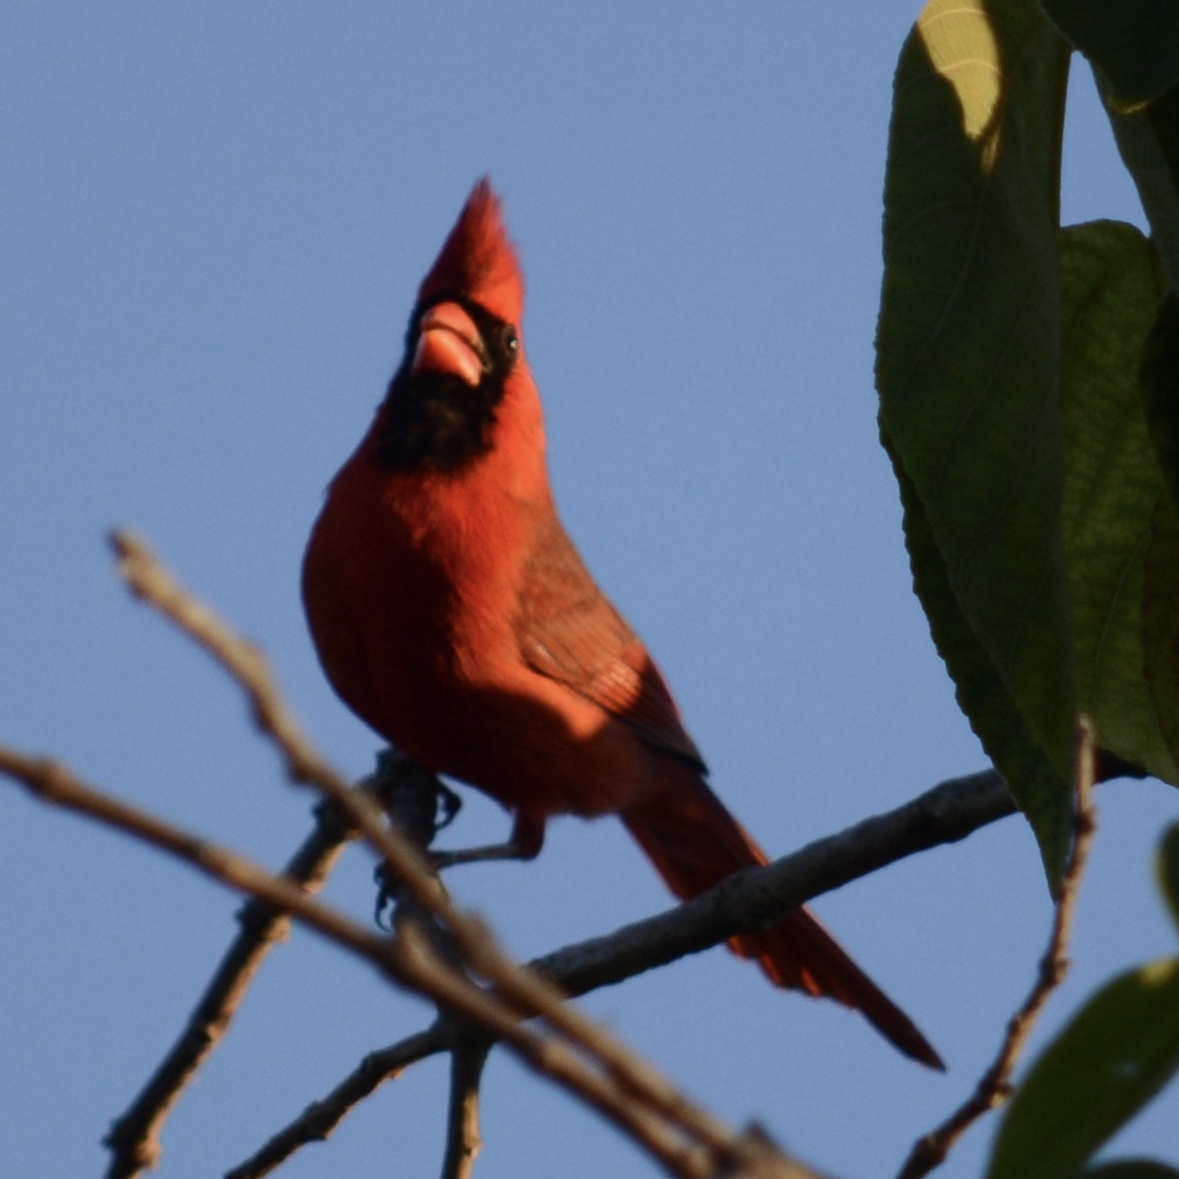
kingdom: Animalia
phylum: Chordata
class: Aves
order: Passeriformes
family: Cardinalidae
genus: Cardinalis
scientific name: Cardinalis cardinalis
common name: Northern cardinal
